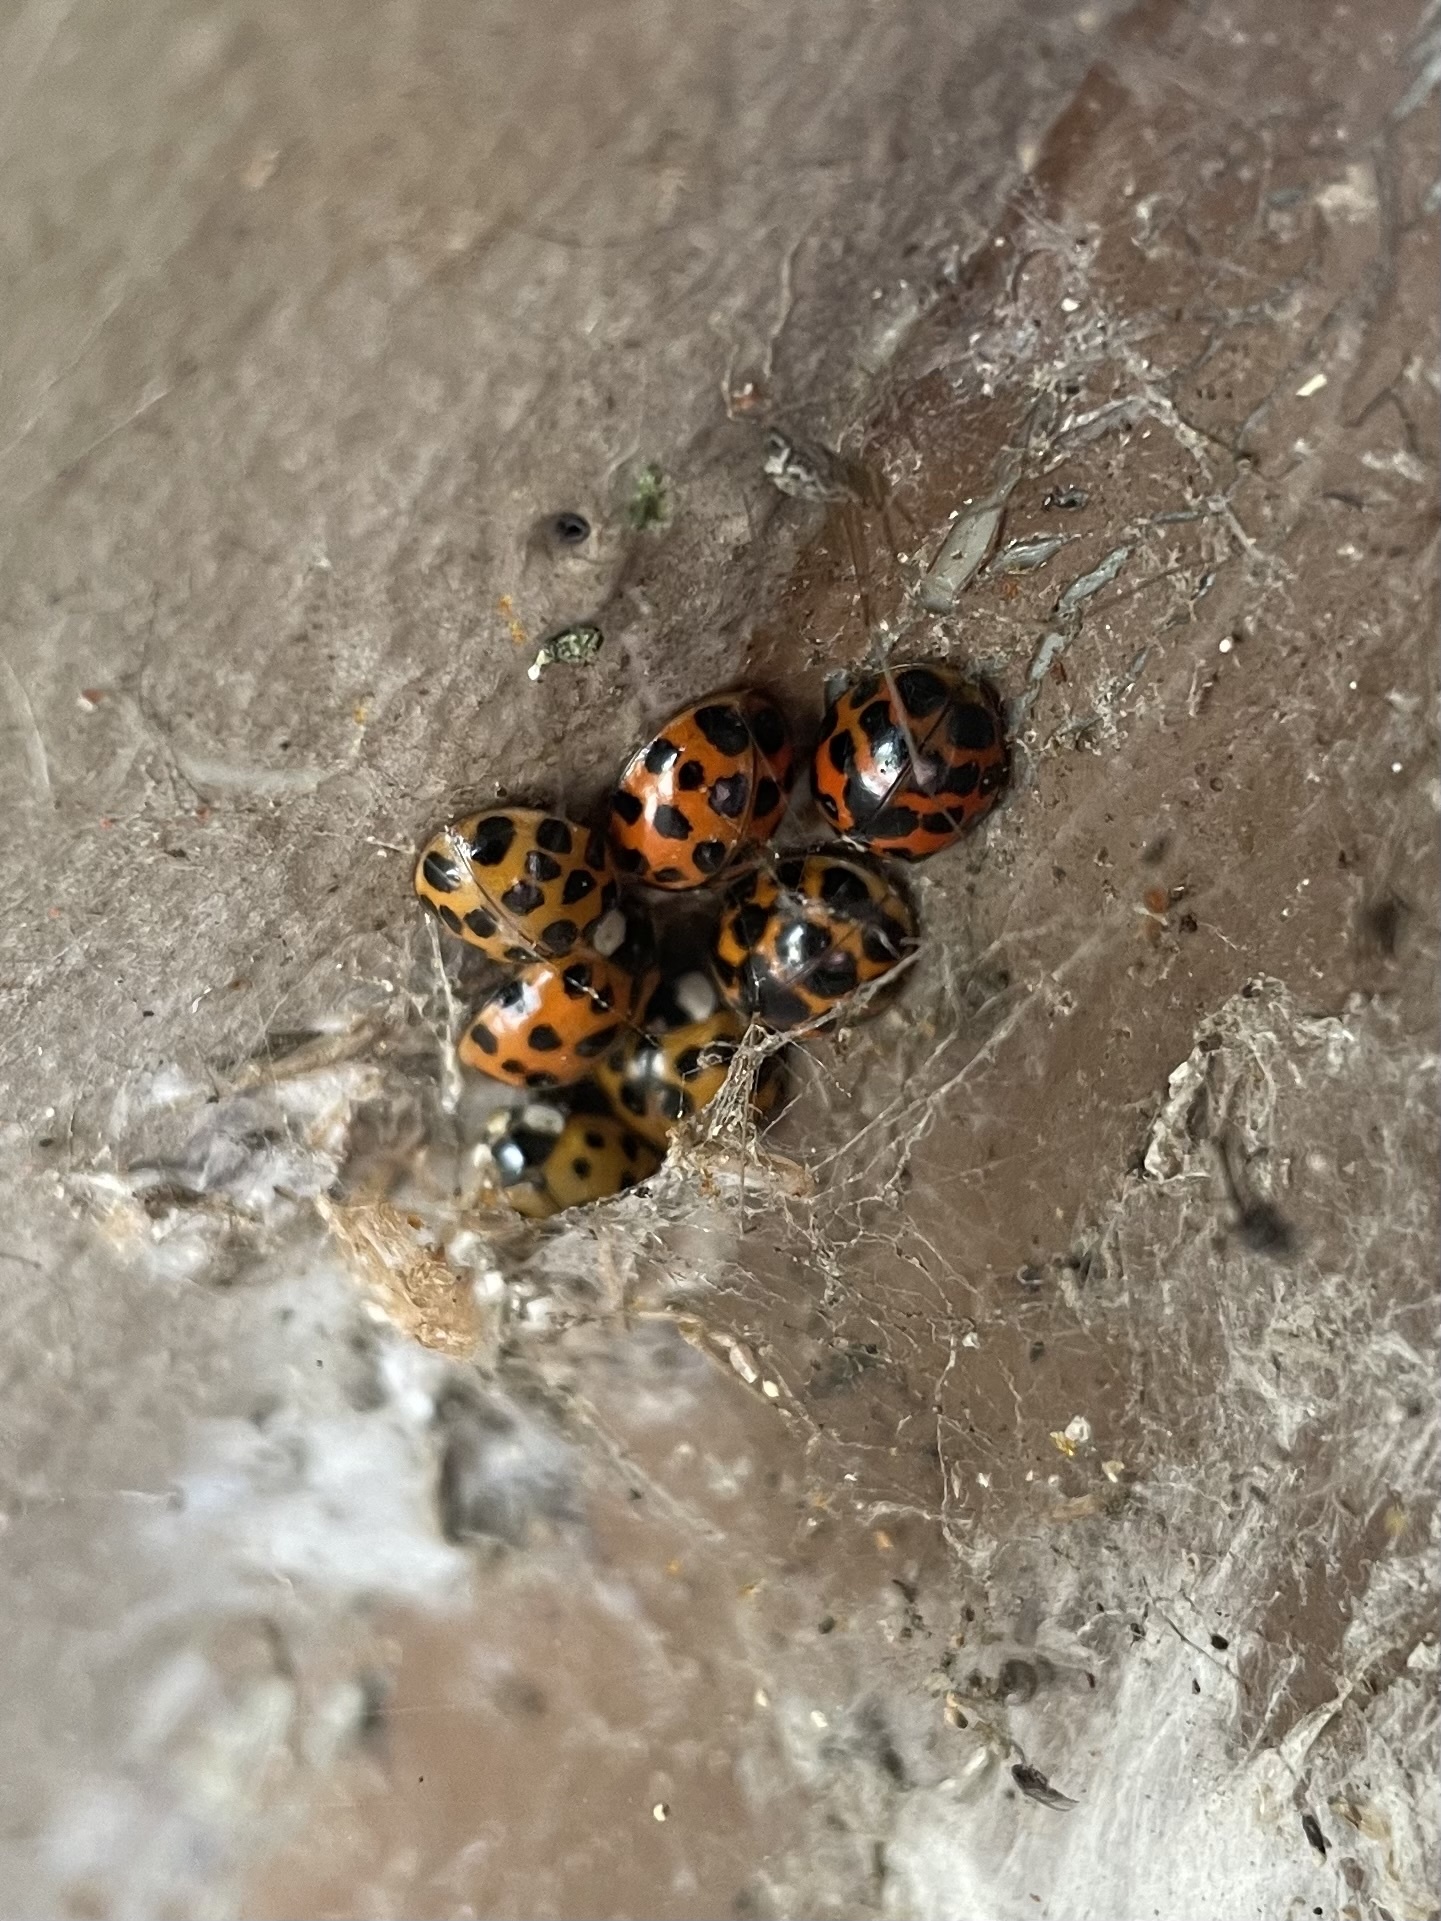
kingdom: Animalia
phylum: Arthropoda
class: Insecta
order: Coleoptera
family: Coccinellidae
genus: Harmonia
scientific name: Harmonia axyridis
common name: Harlequin ladybird
